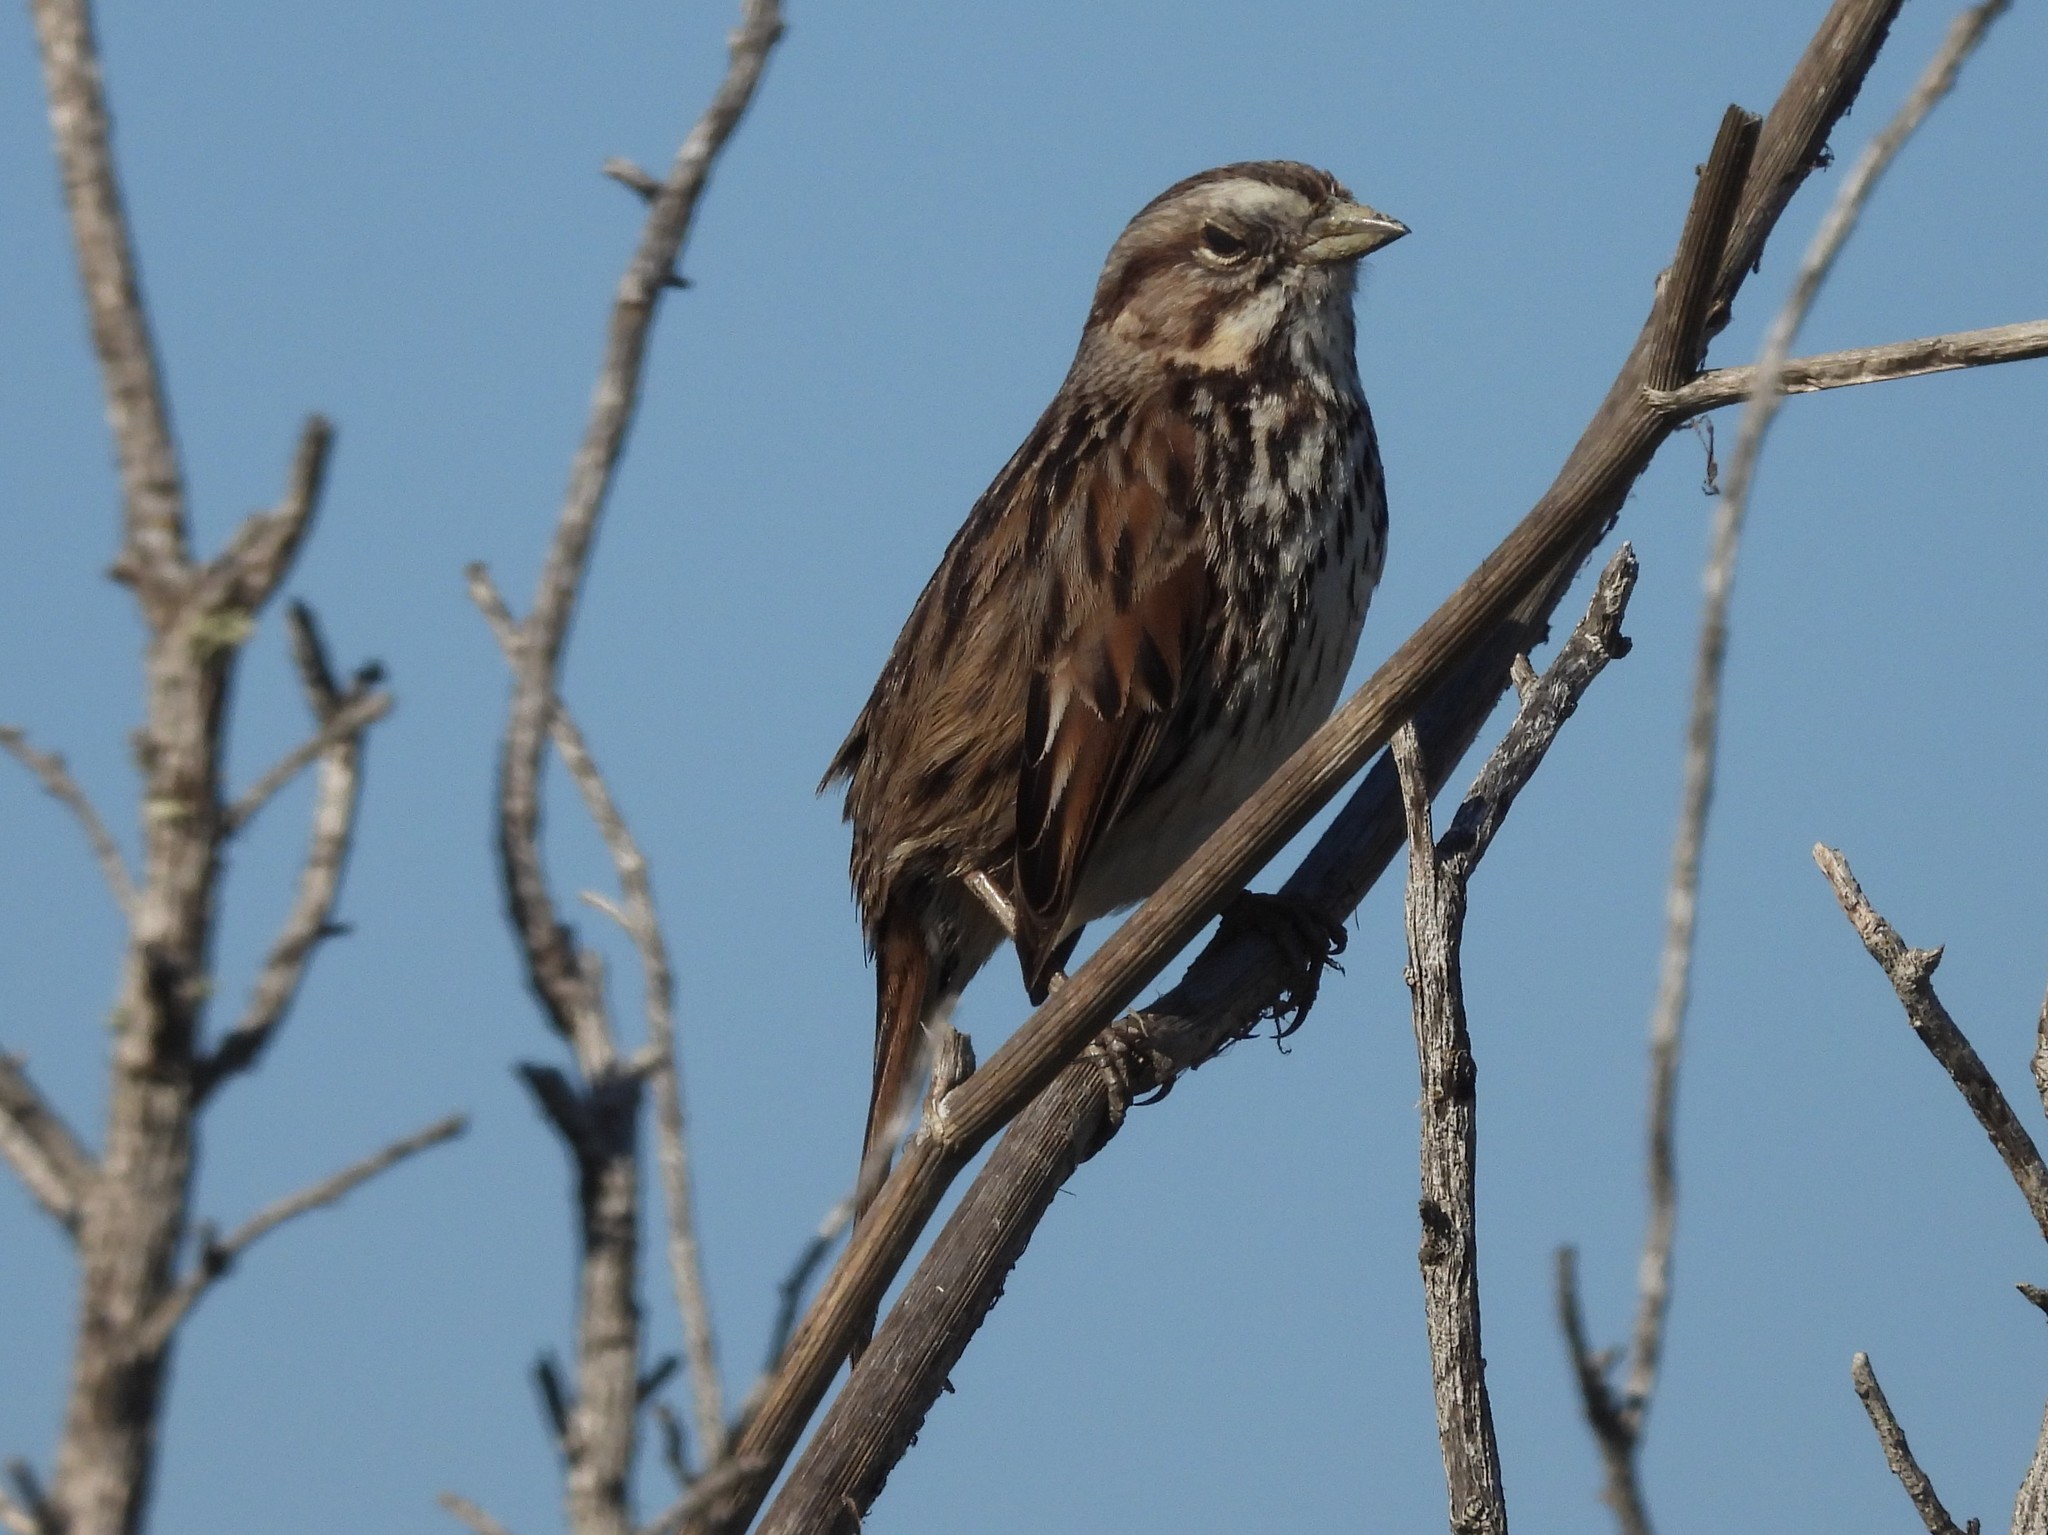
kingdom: Animalia
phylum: Chordata
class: Aves
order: Passeriformes
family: Passerellidae
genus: Melospiza
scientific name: Melospiza melodia
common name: Song sparrow
